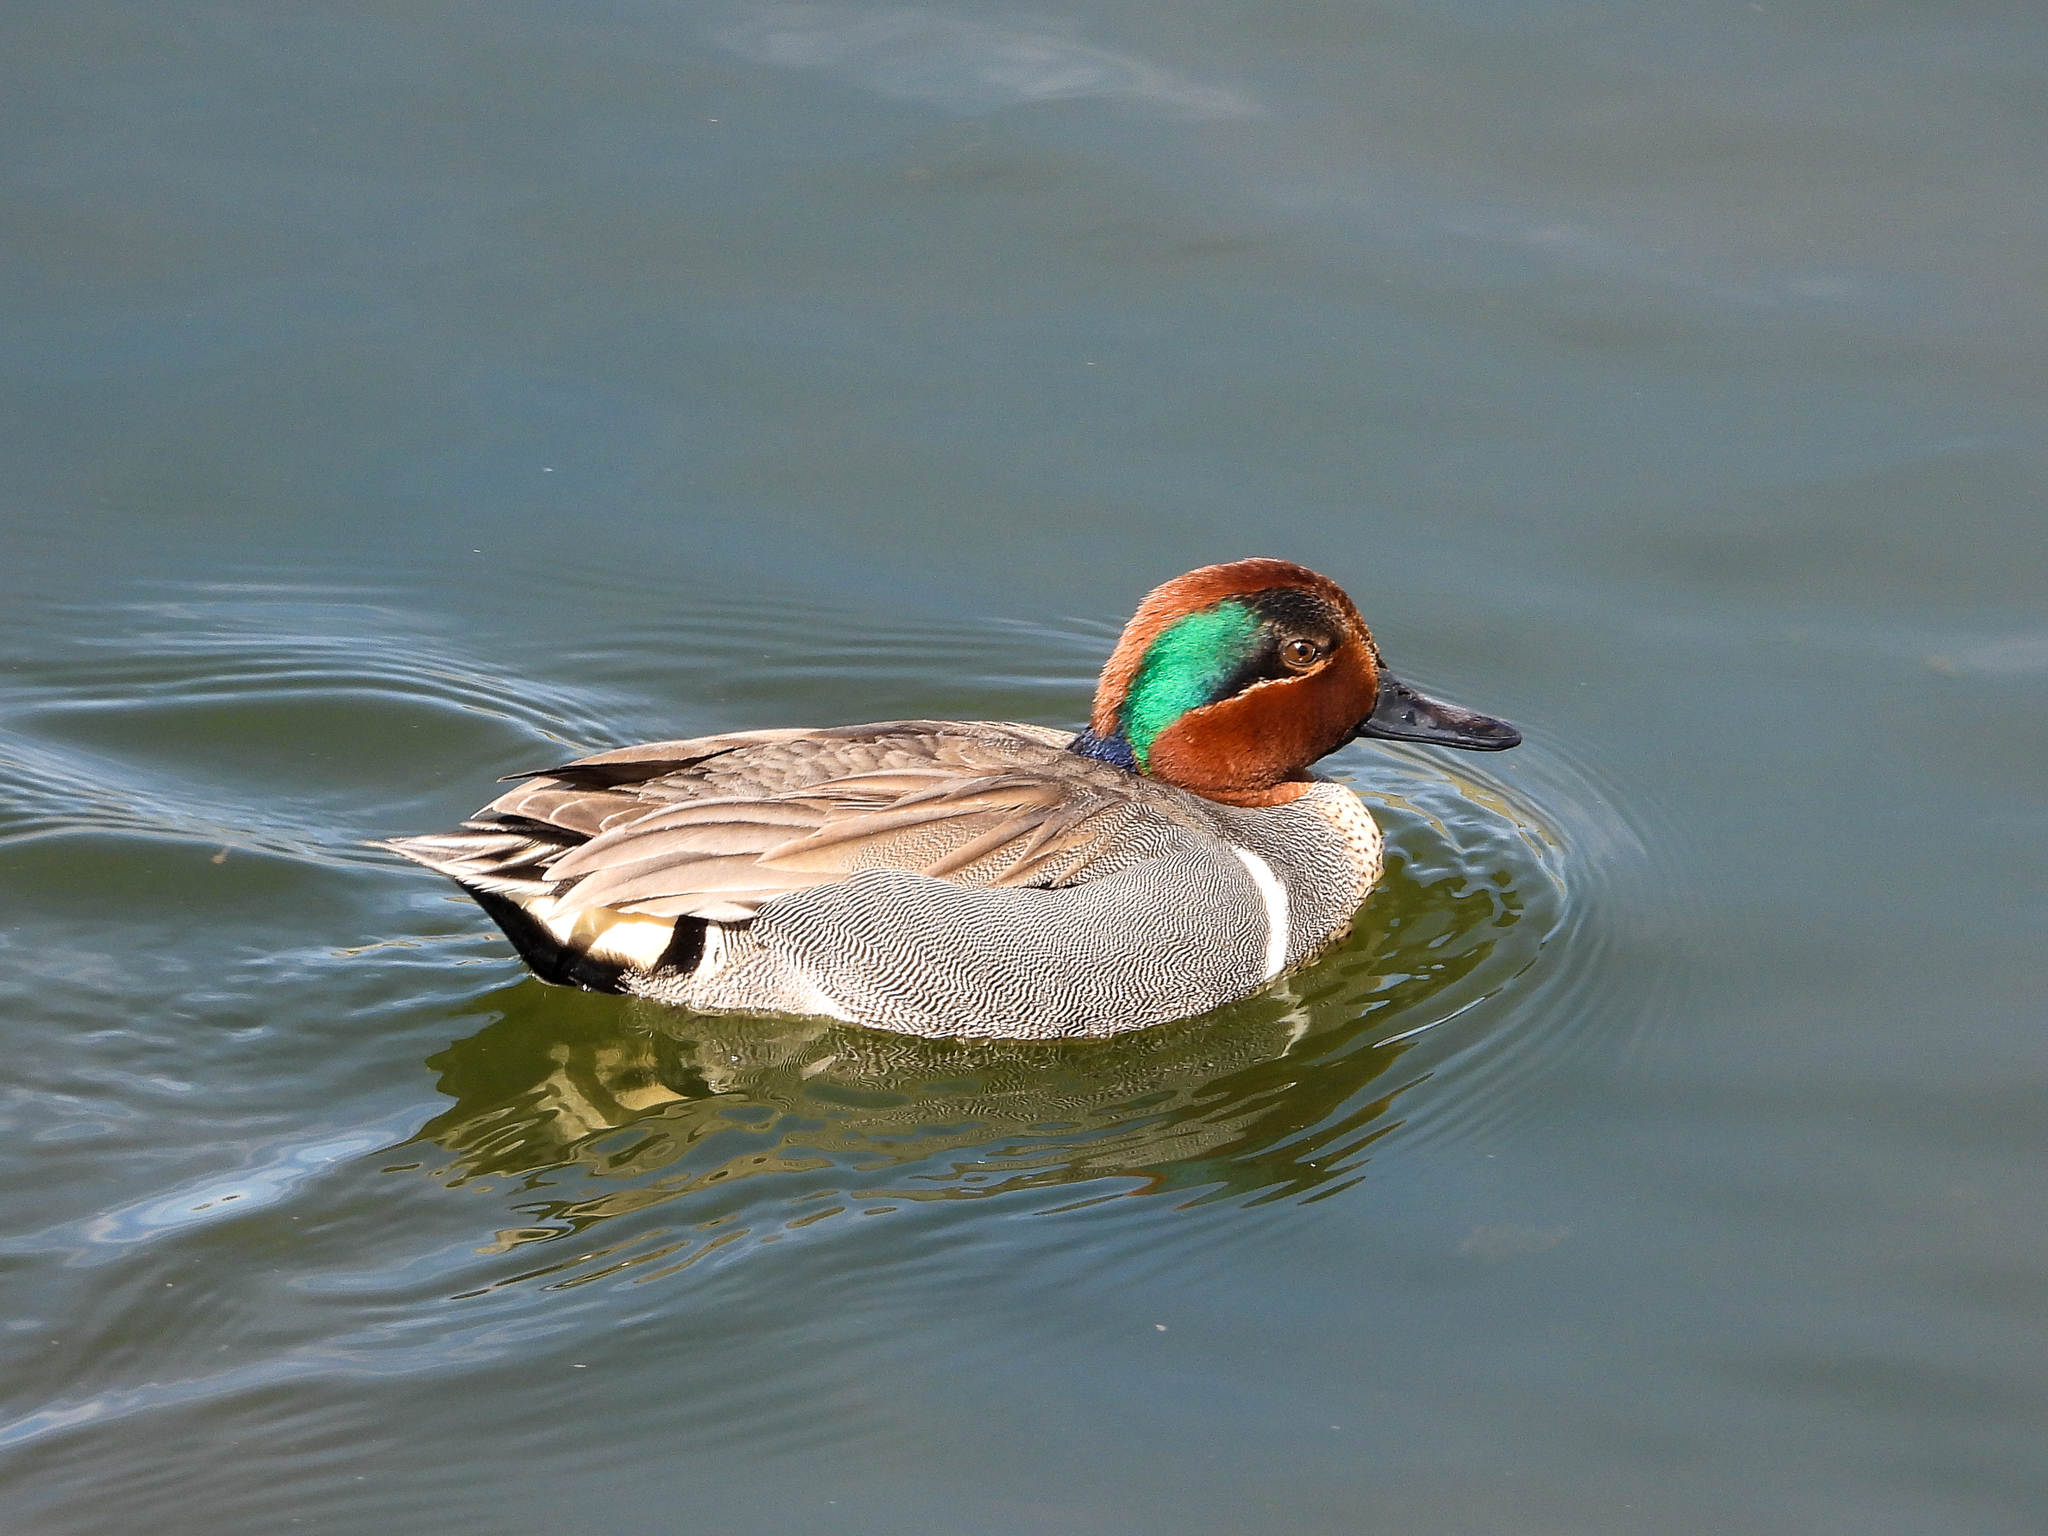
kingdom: Animalia
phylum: Chordata
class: Aves
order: Anseriformes
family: Anatidae
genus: Anas
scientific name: Anas crecca
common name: Eurasian teal
